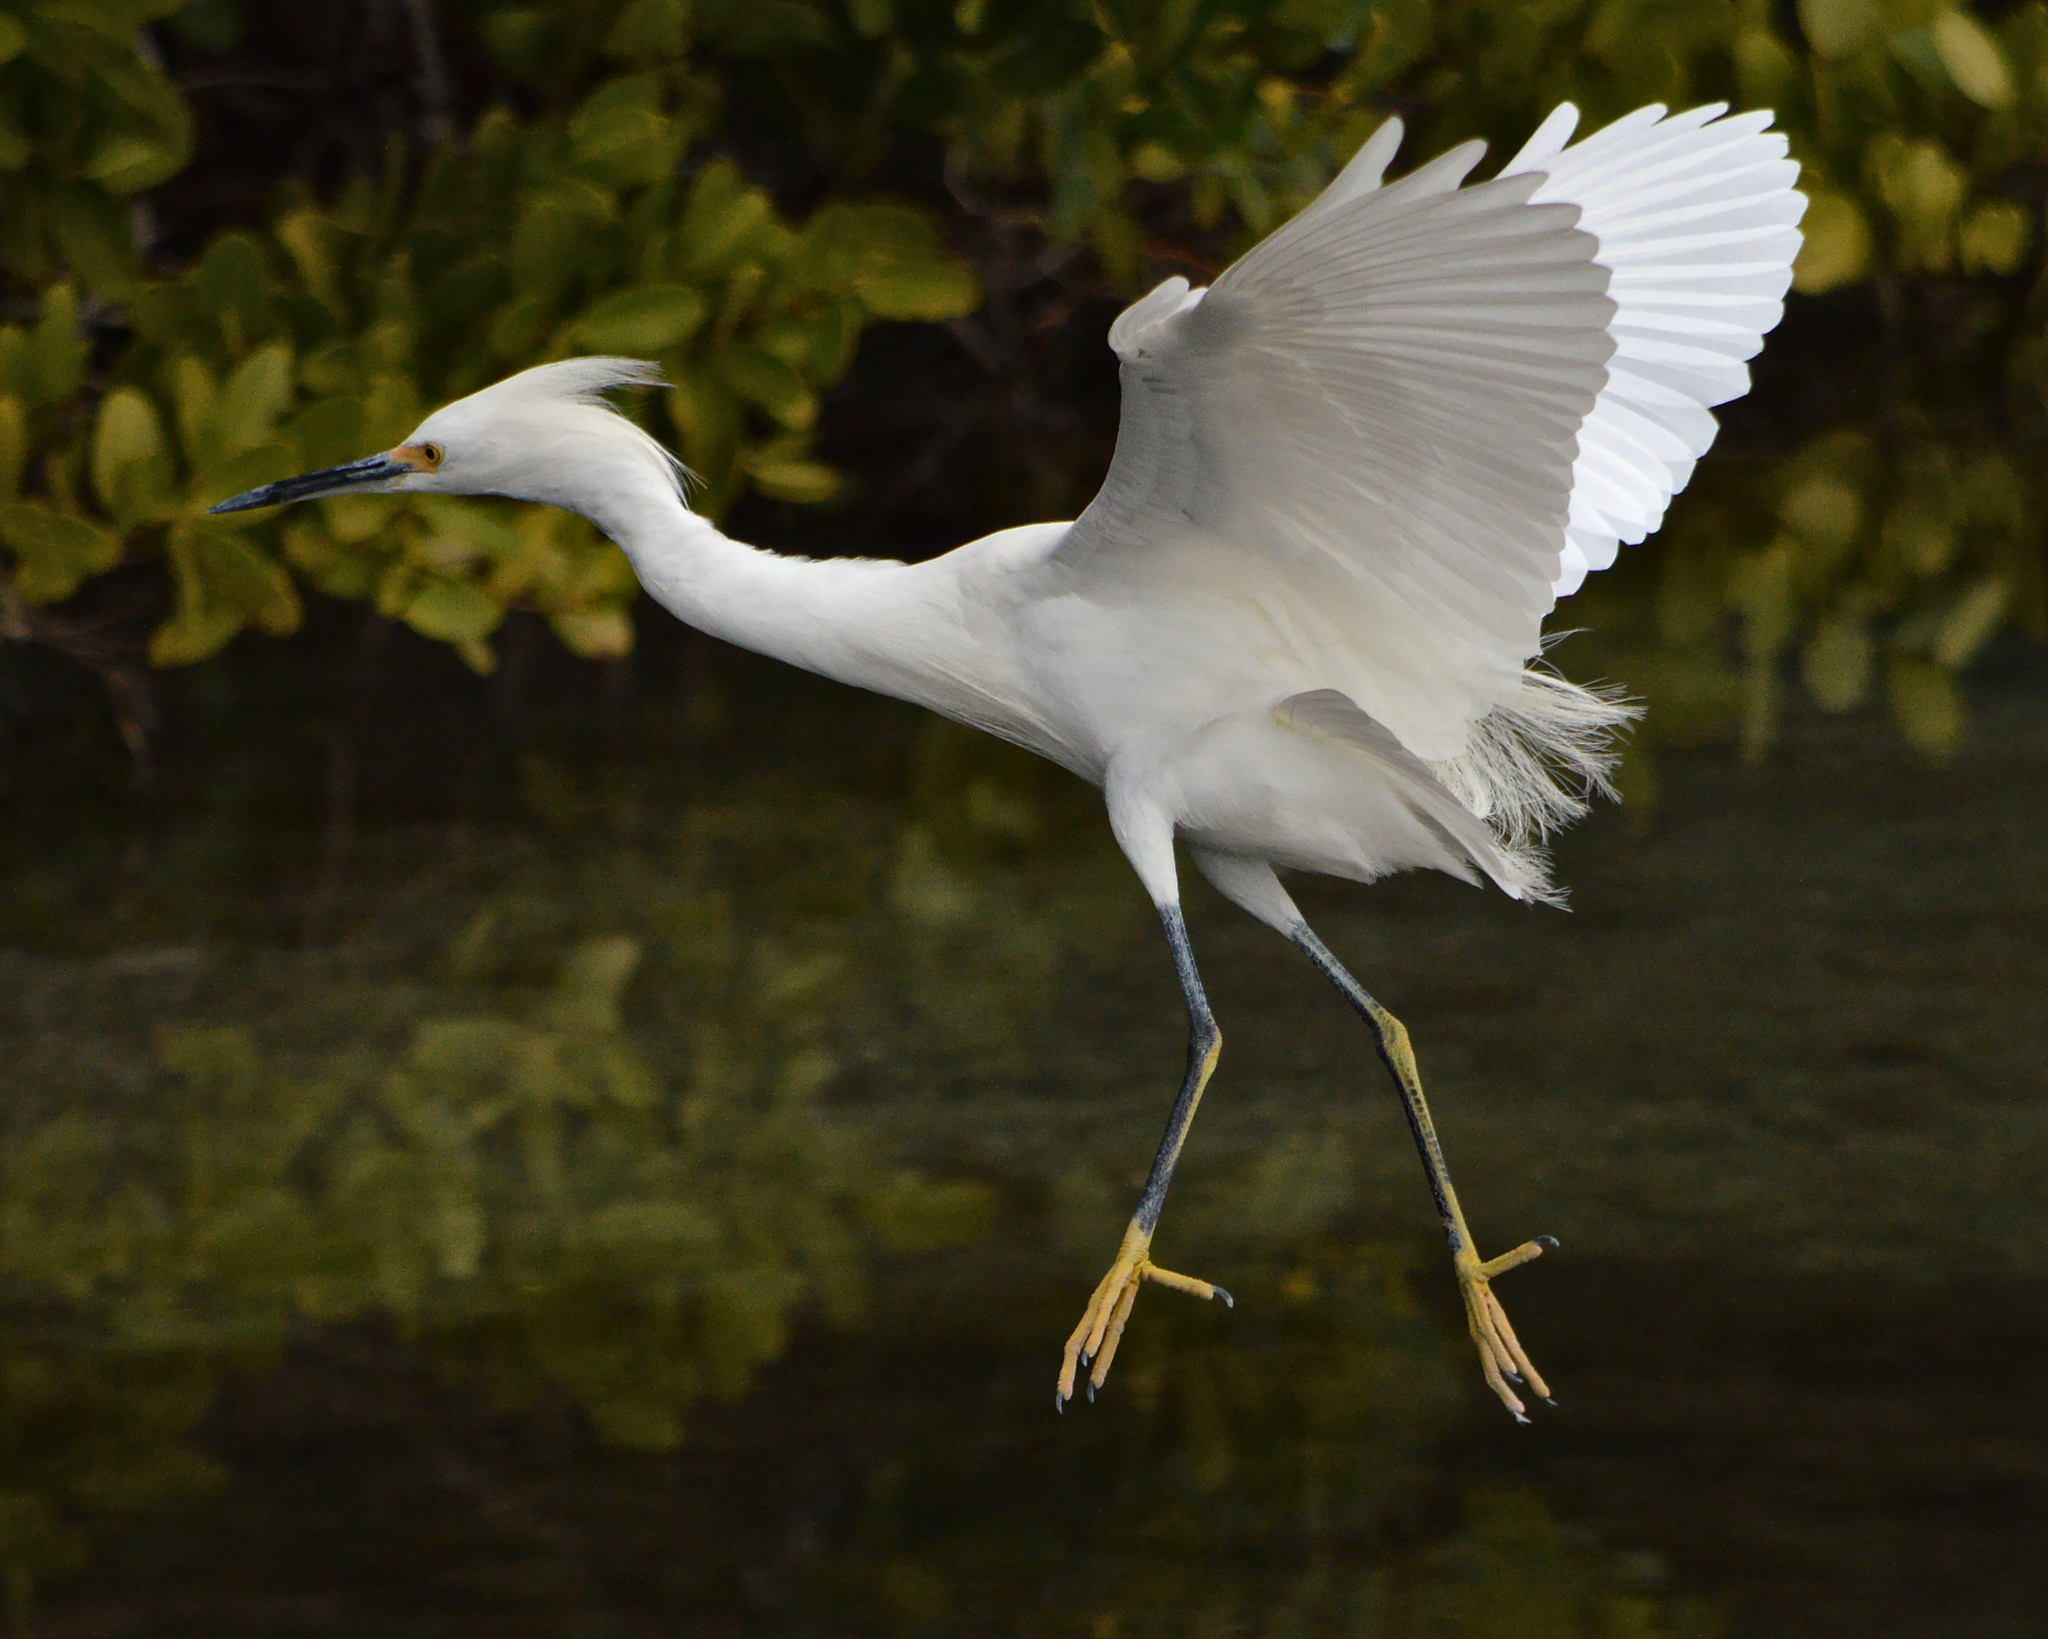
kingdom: Animalia
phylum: Chordata
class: Aves
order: Pelecaniformes
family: Ardeidae
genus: Egretta
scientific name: Egretta thula
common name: Snowy egret
